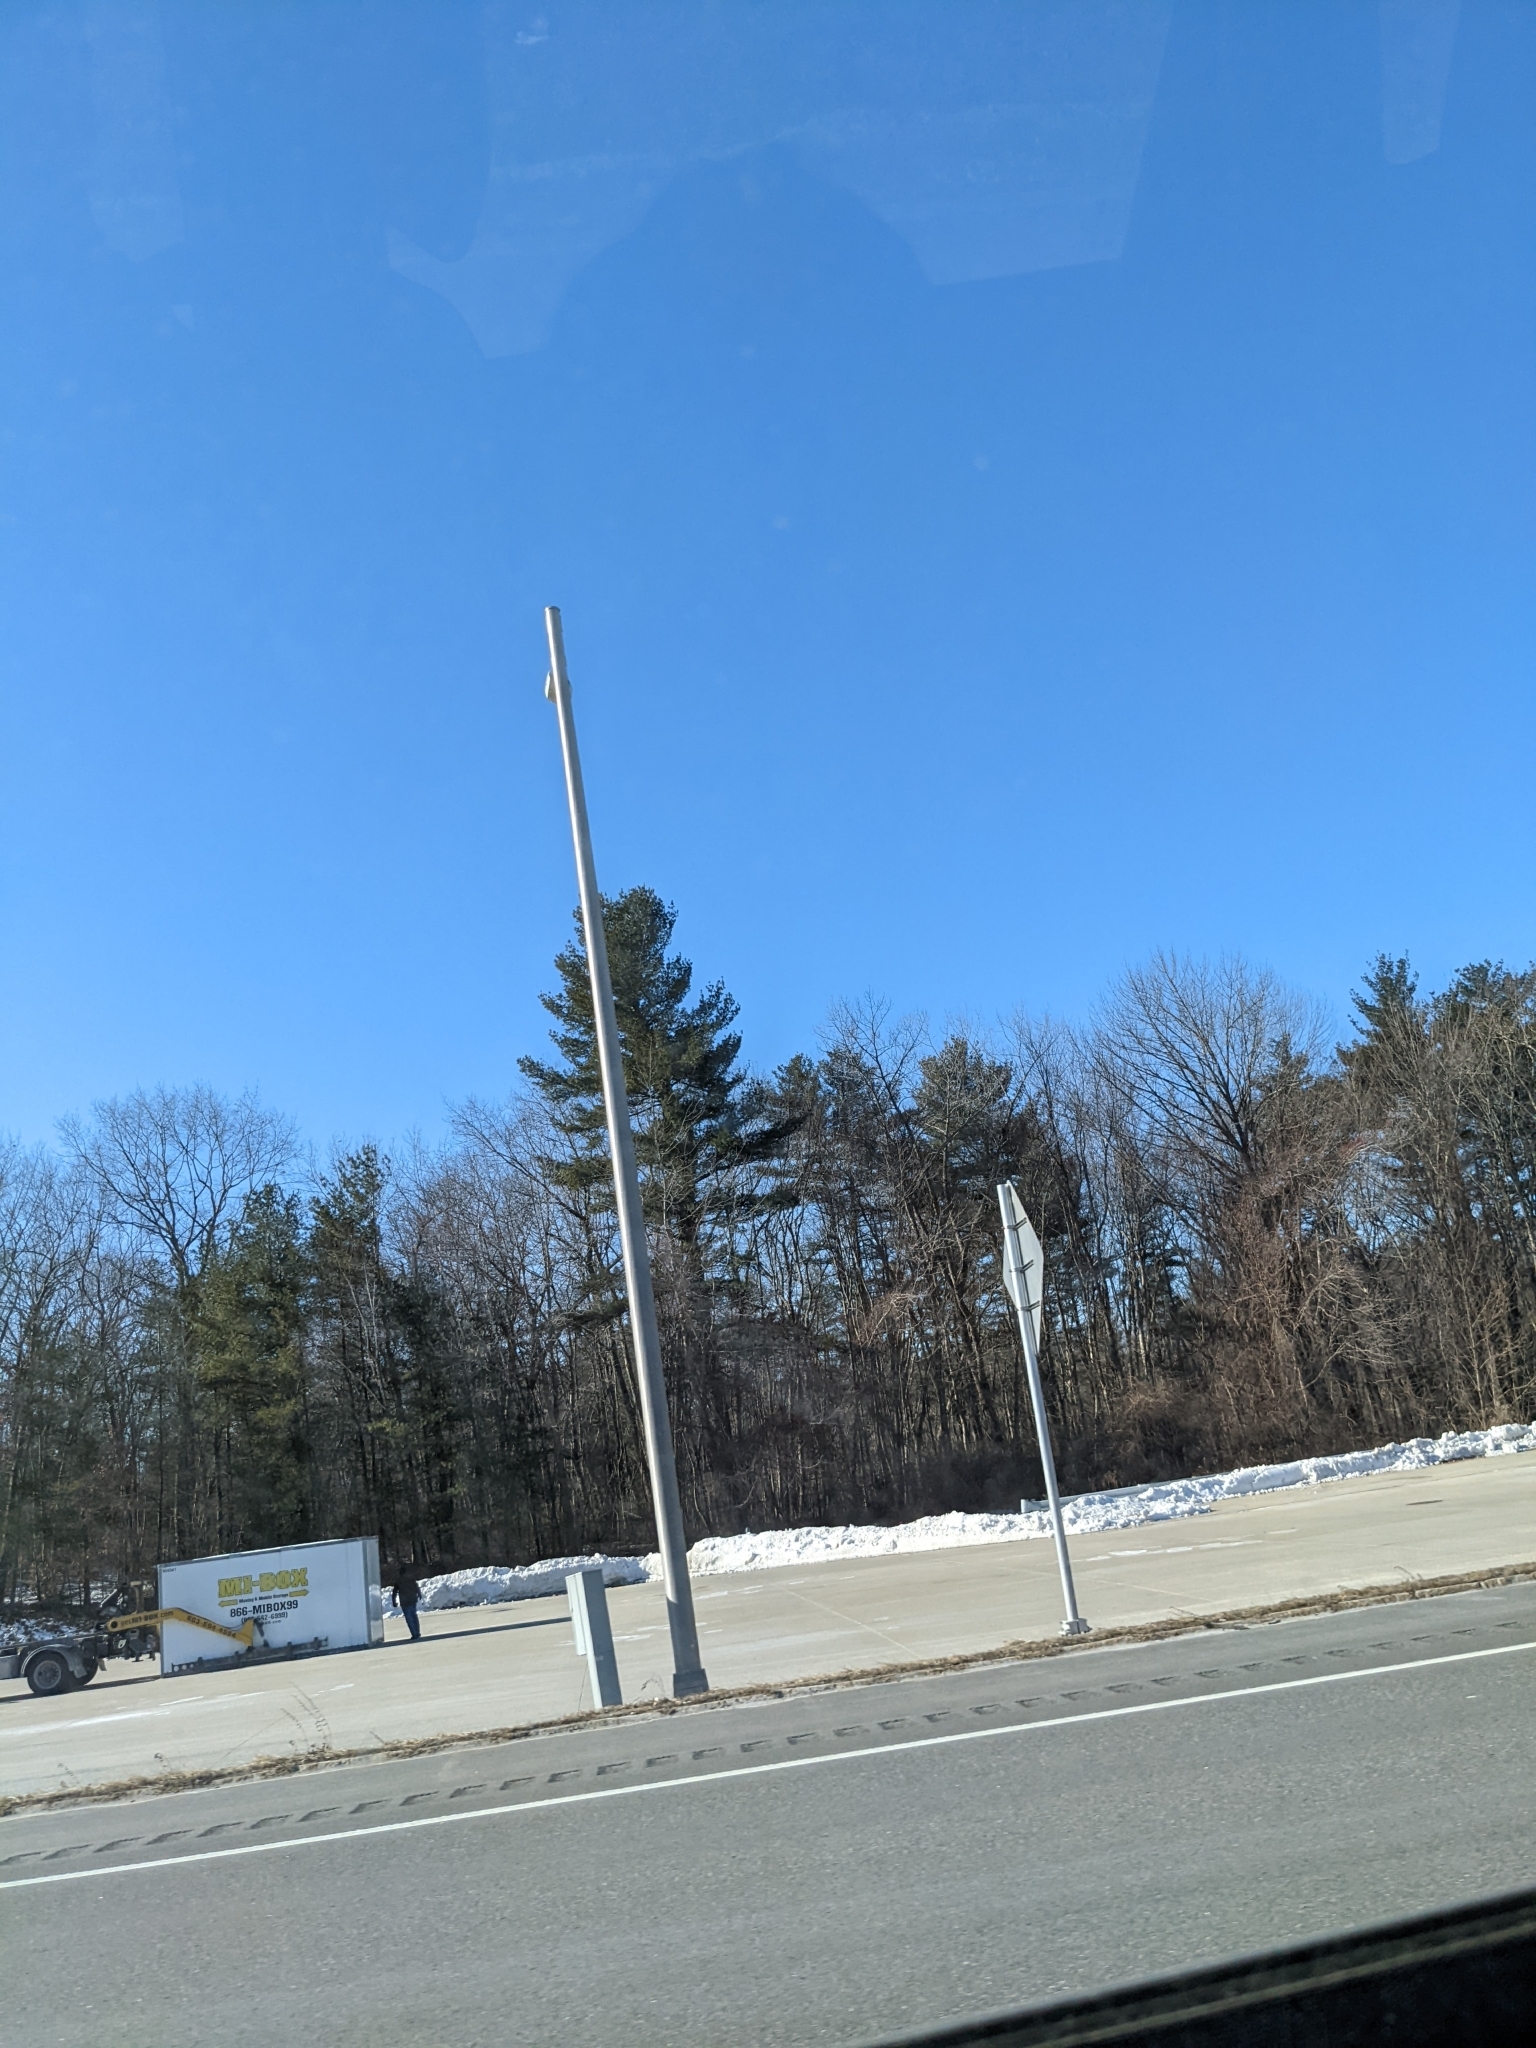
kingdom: Plantae
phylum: Tracheophyta
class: Pinopsida
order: Pinales
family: Pinaceae
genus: Pinus
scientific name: Pinus strobus
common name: Weymouth pine
